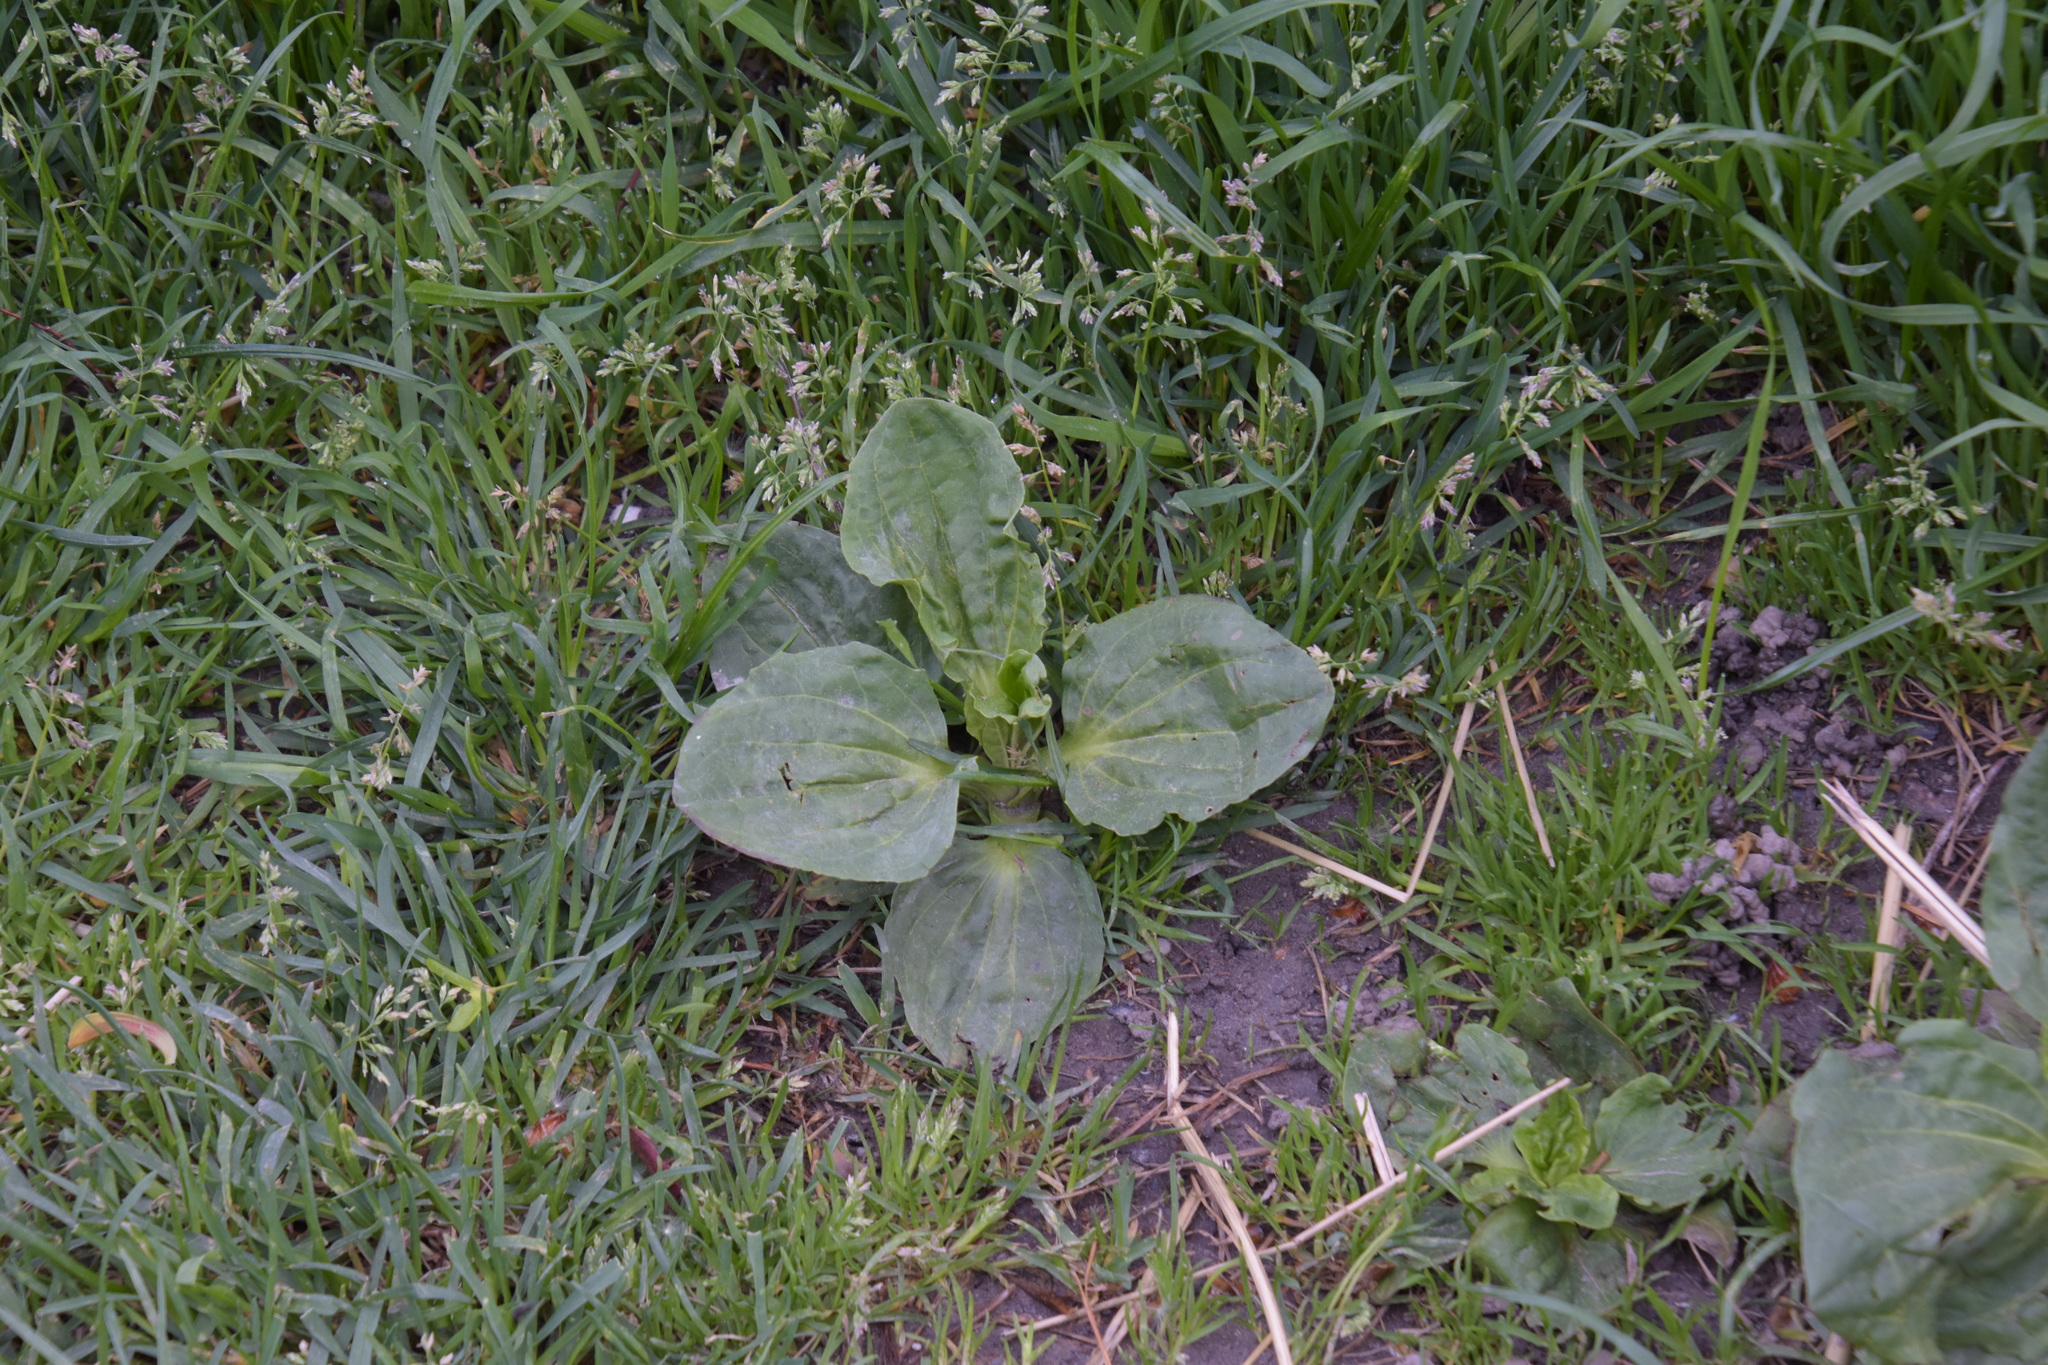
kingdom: Plantae
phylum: Tracheophyta
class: Magnoliopsida
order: Lamiales
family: Plantaginaceae
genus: Plantago
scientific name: Plantago major
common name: Common plantain
